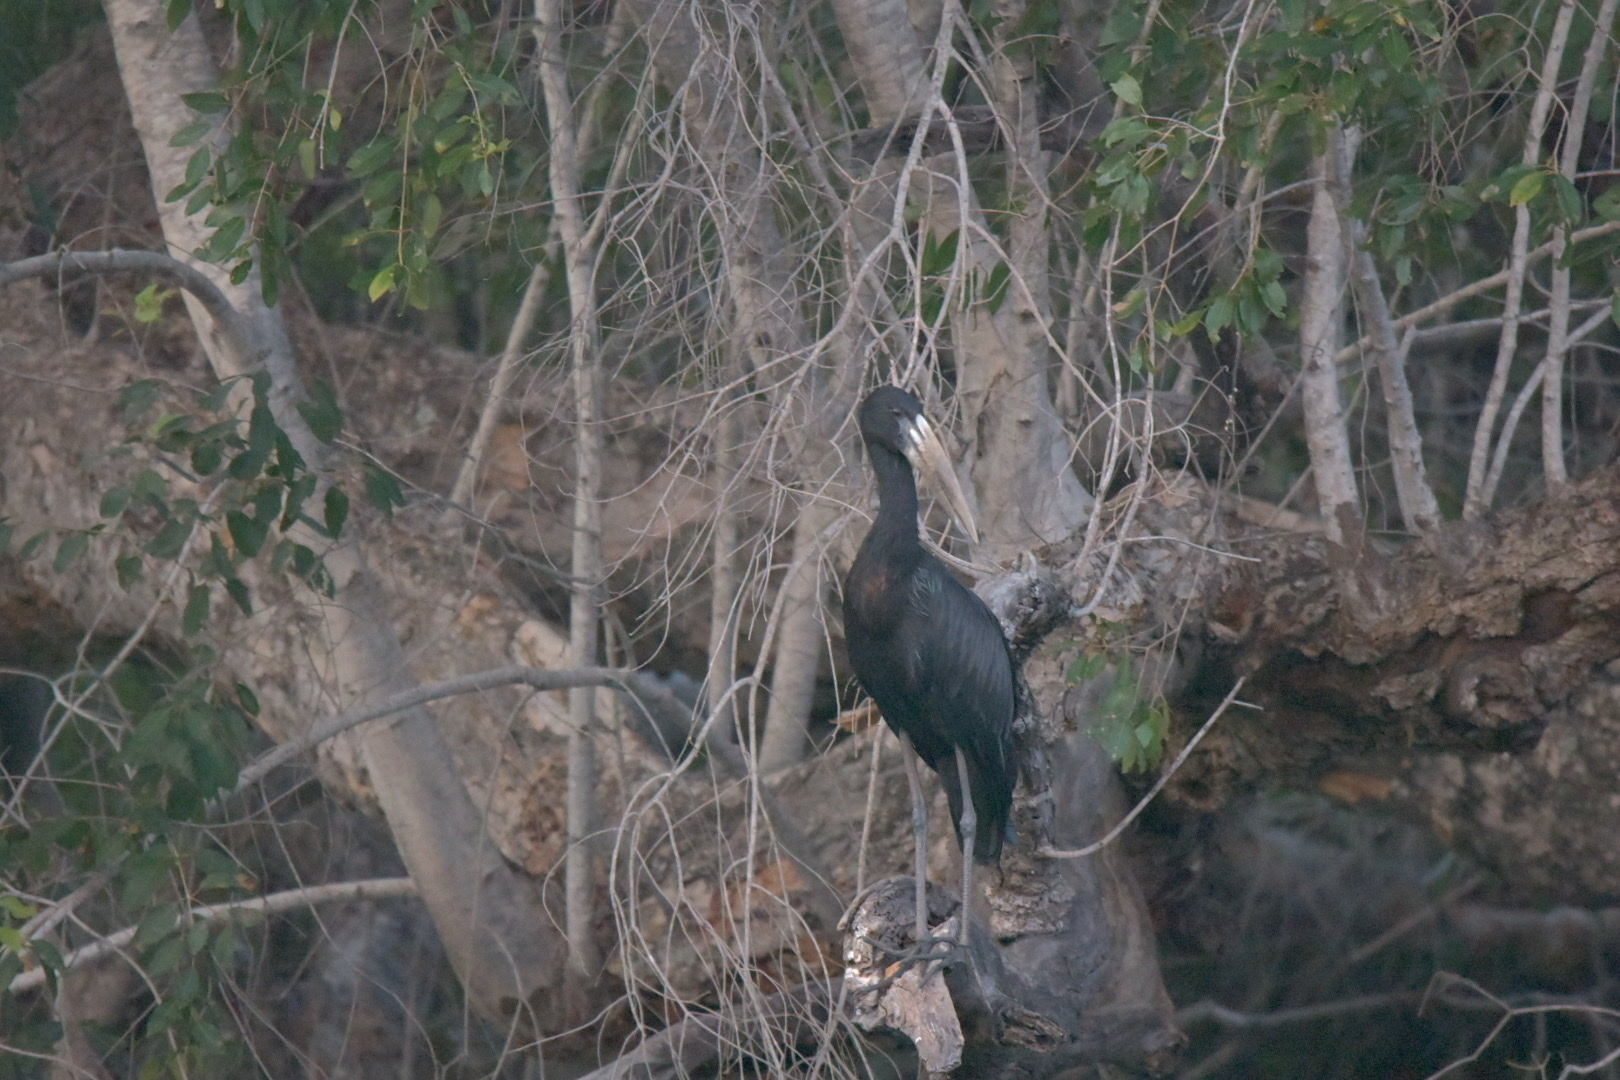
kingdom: Animalia
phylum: Chordata
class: Aves
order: Ciconiiformes
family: Ciconiidae
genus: Anastomus
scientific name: Anastomus lamelligerus
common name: African openbill
